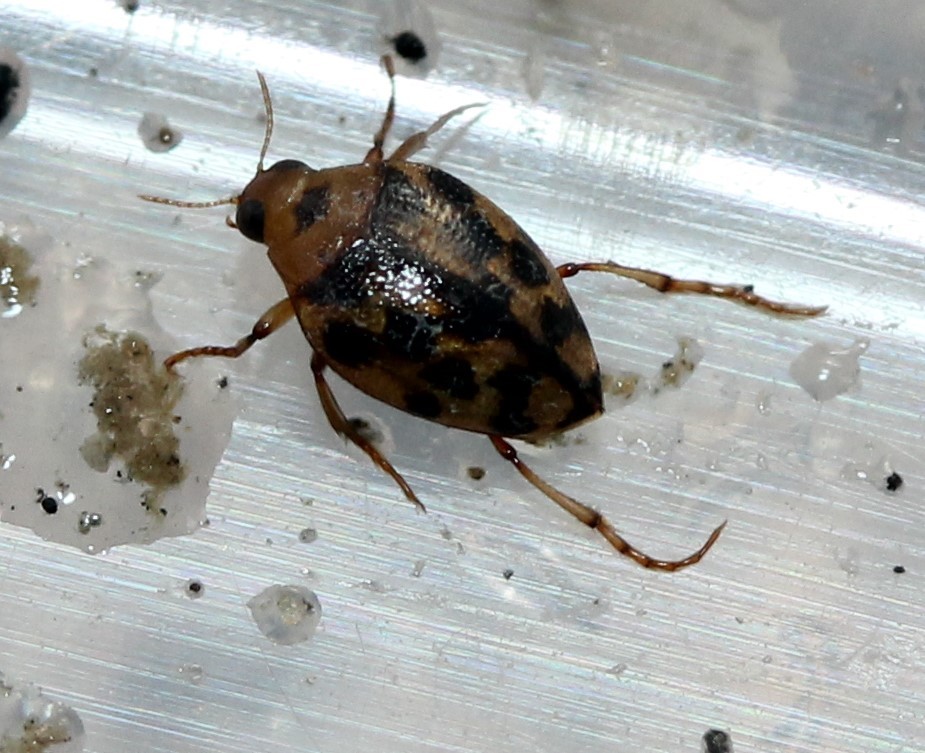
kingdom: Animalia
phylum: Arthropoda
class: Insecta
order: Coleoptera
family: Haliplidae
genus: Haliplus
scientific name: Haliplus
